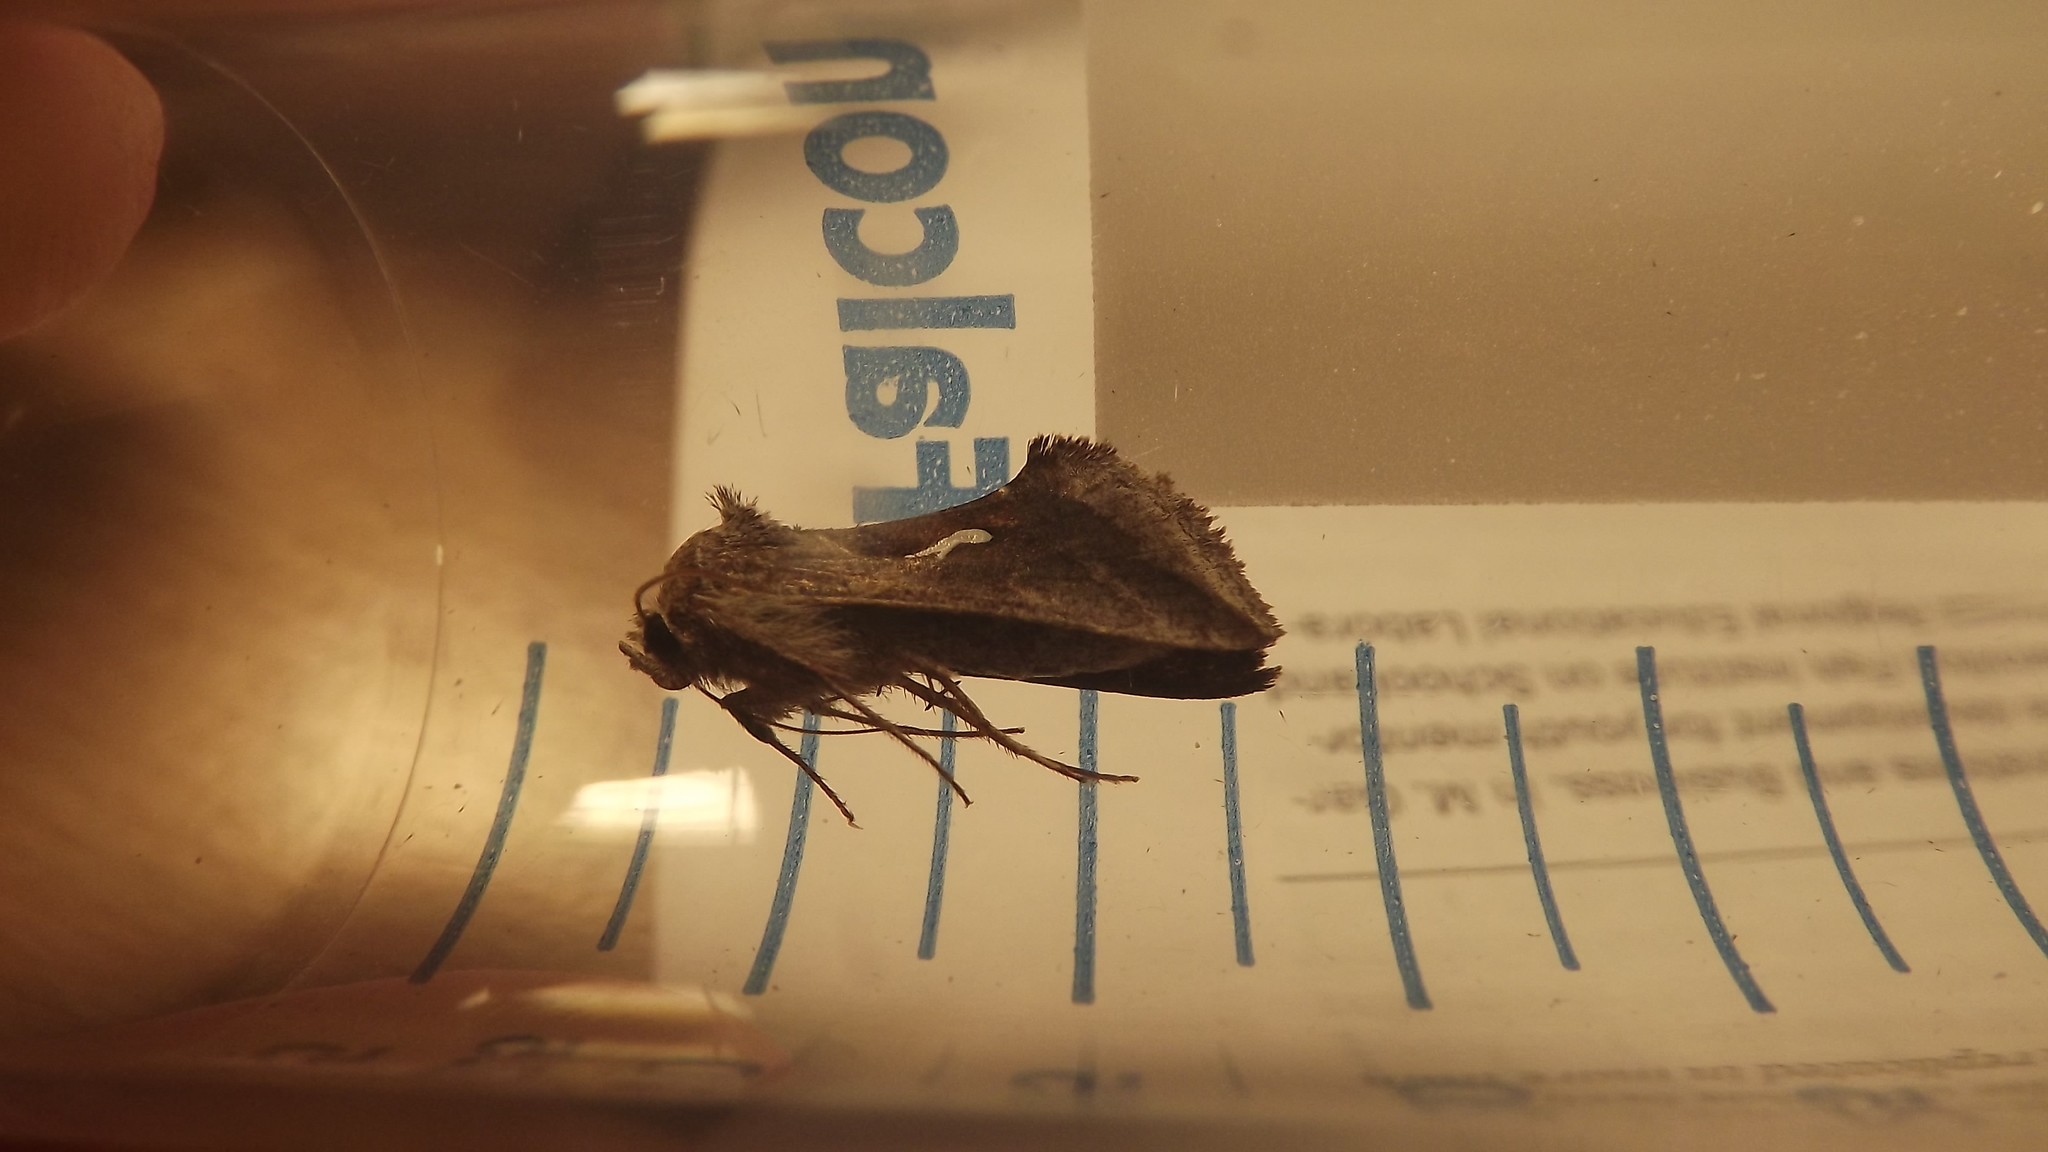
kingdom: Animalia
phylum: Arthropoda
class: Insecta
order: Lepidoptera
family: Noctuidae
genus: Anagrapha
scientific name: Anagrapha falcifera
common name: Celery looper
